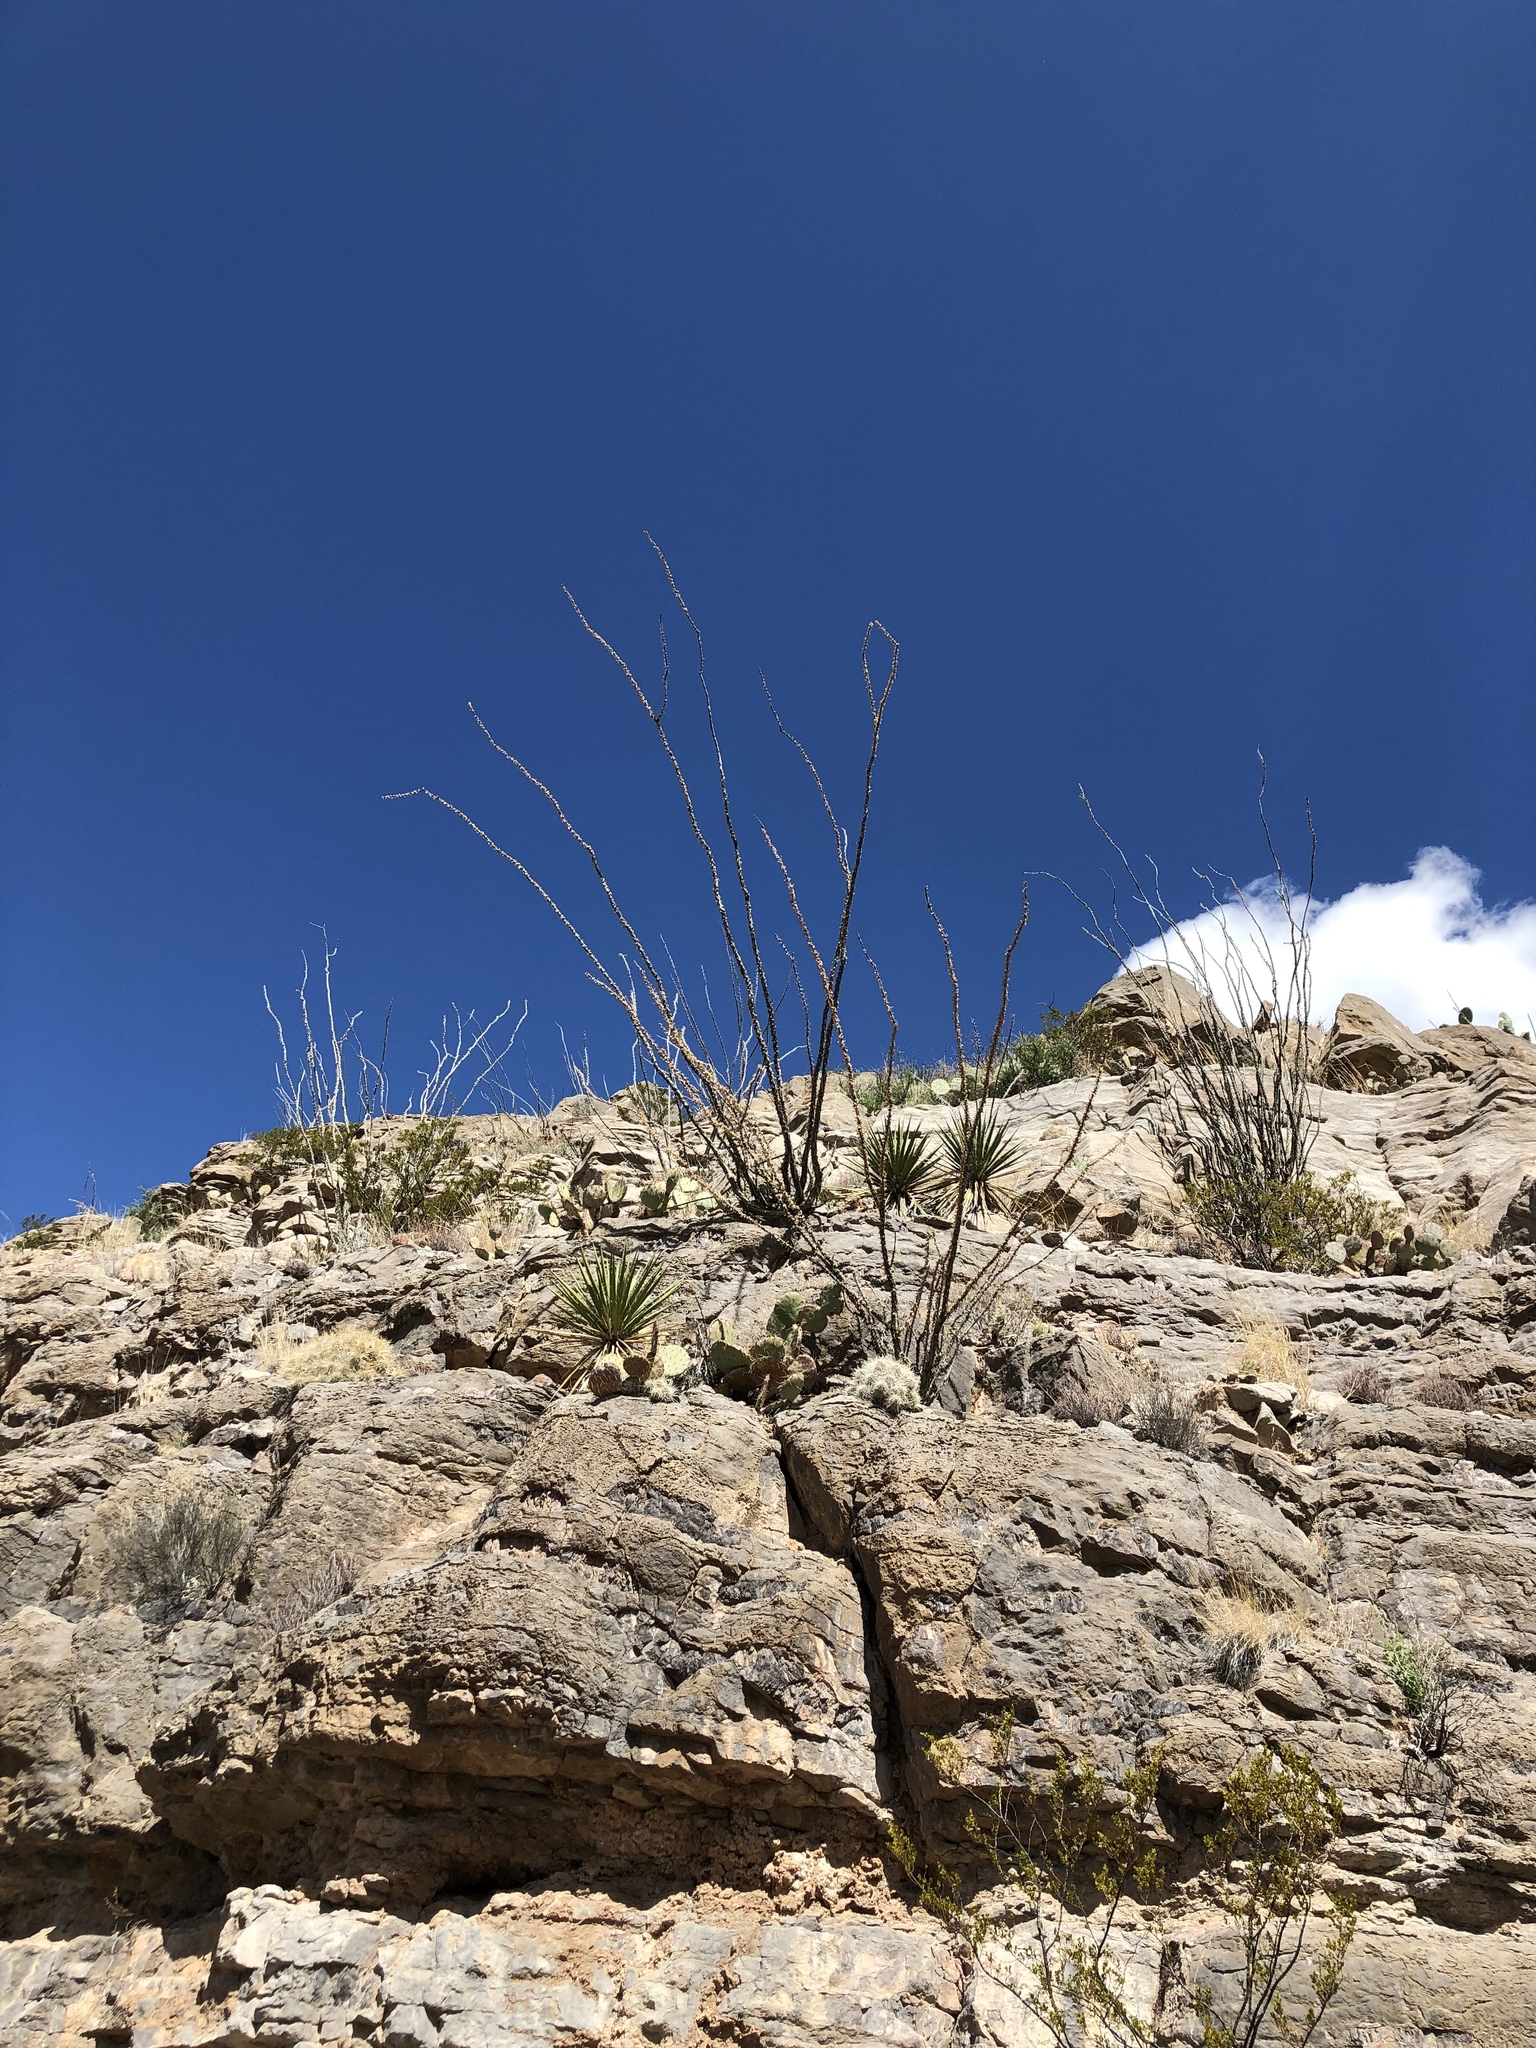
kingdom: Plantae
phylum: Tracheophyta
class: Magnoliopsida
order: Ericales
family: Fouquieriaceae
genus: Fouquieria
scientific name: Fouquieria splendens
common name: Vine-cactus
